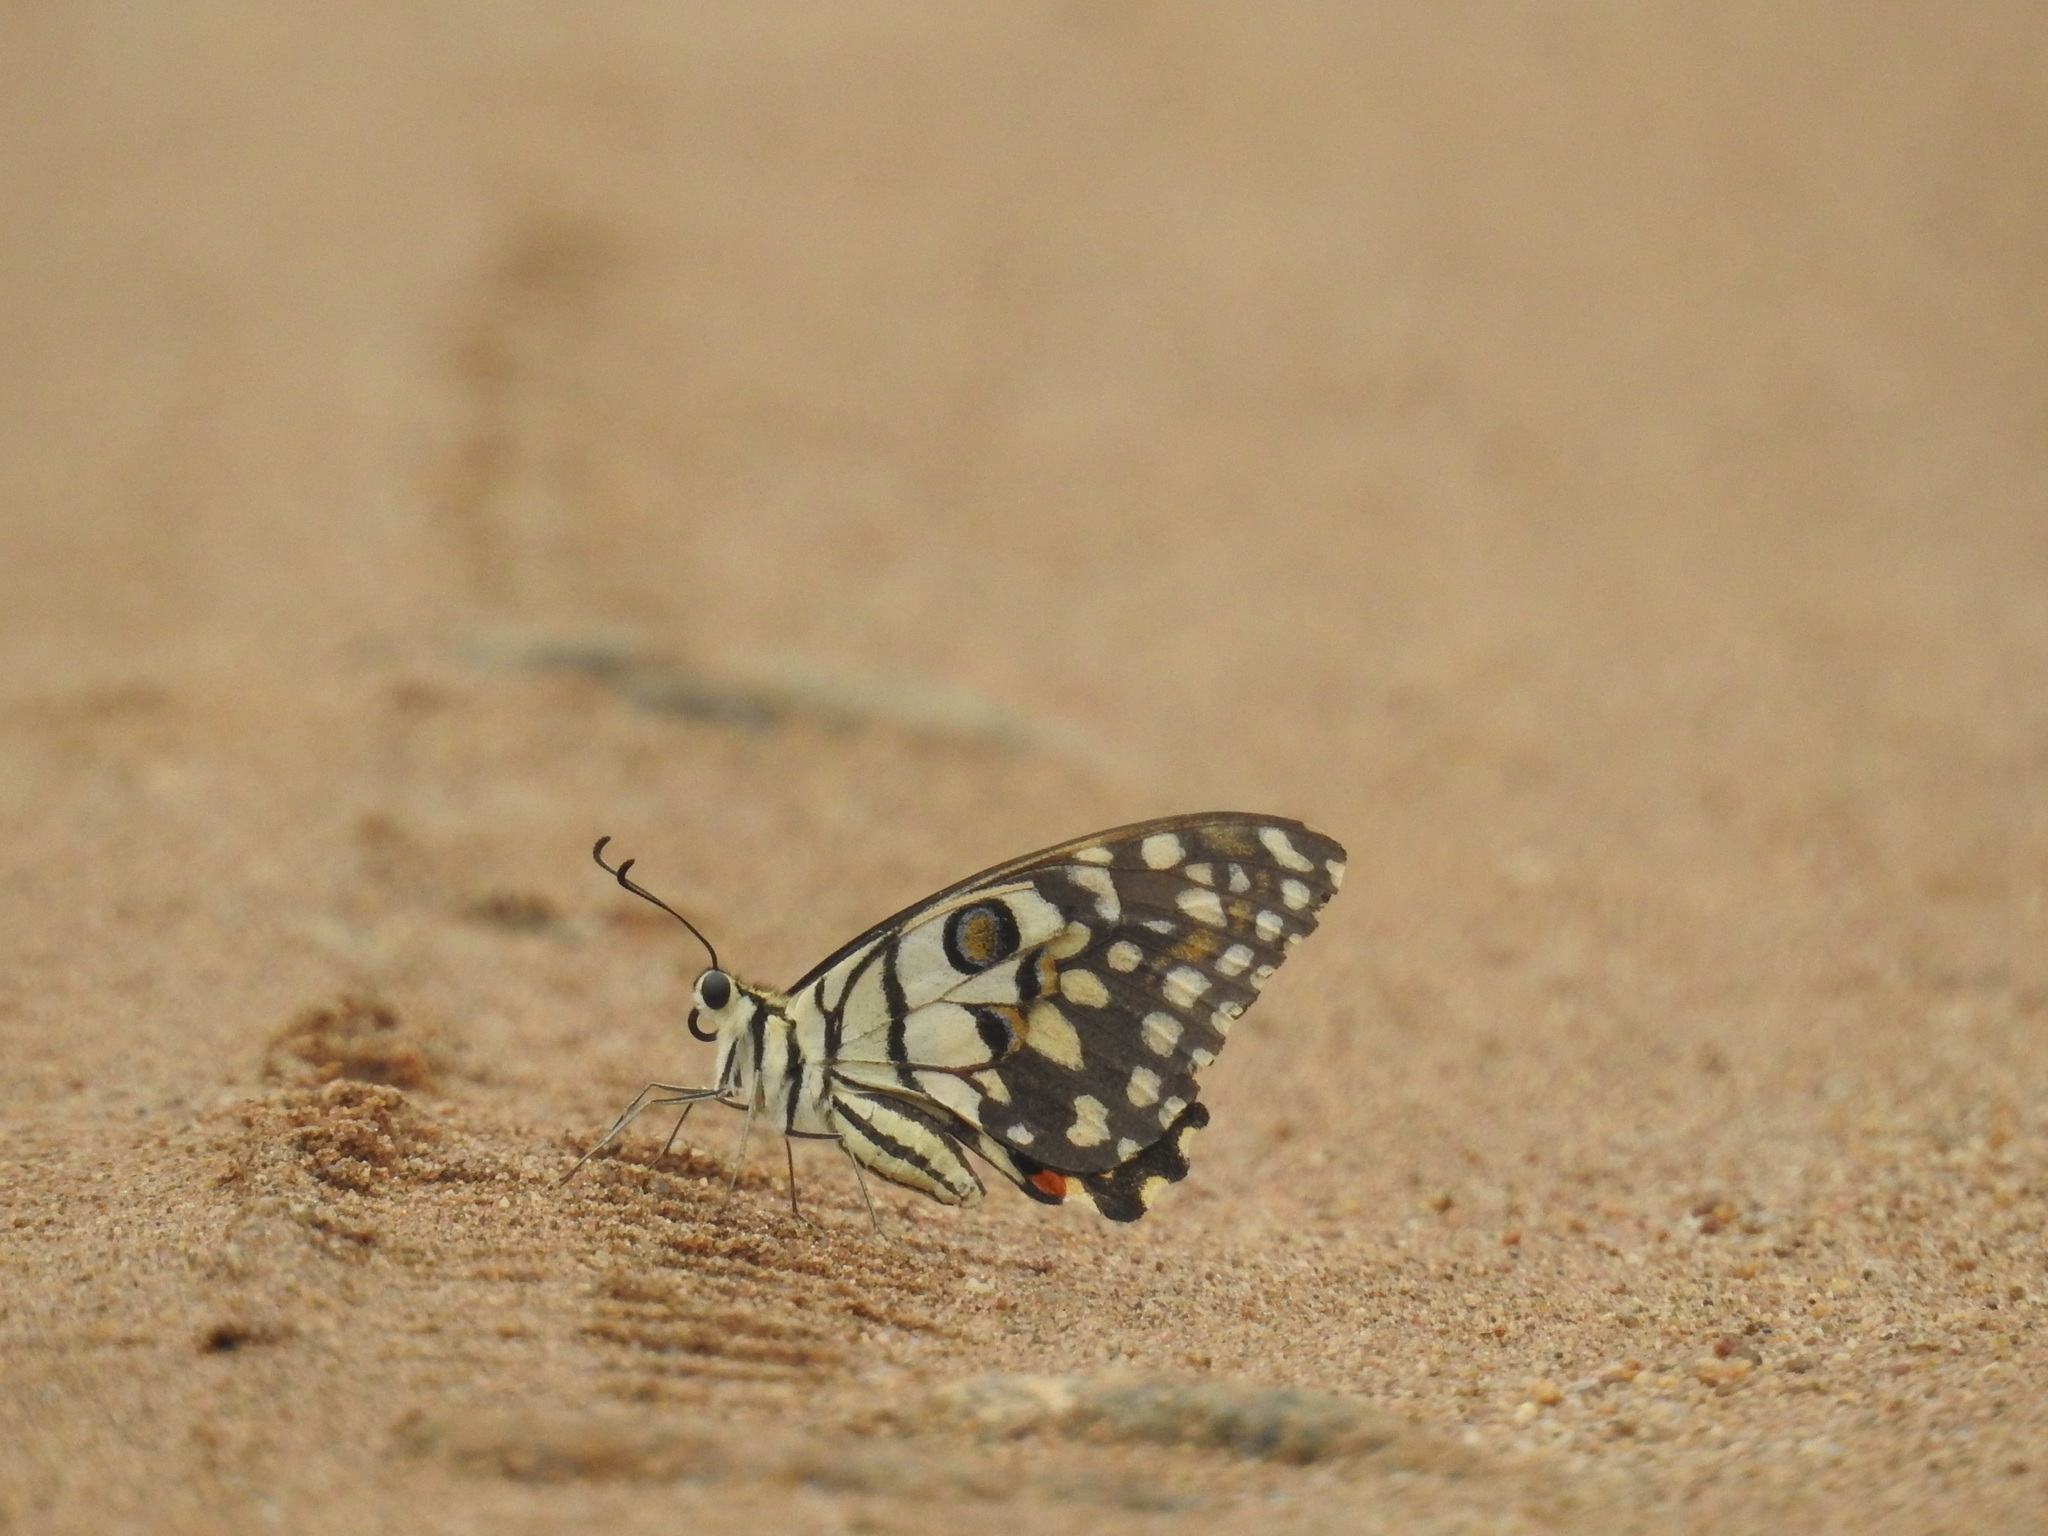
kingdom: Animalia
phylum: Arthropoda
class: Insecta
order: Lepidoptera
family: Papilionidae
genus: Papilio
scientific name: Papilio demoleus
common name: Lime butterfly
